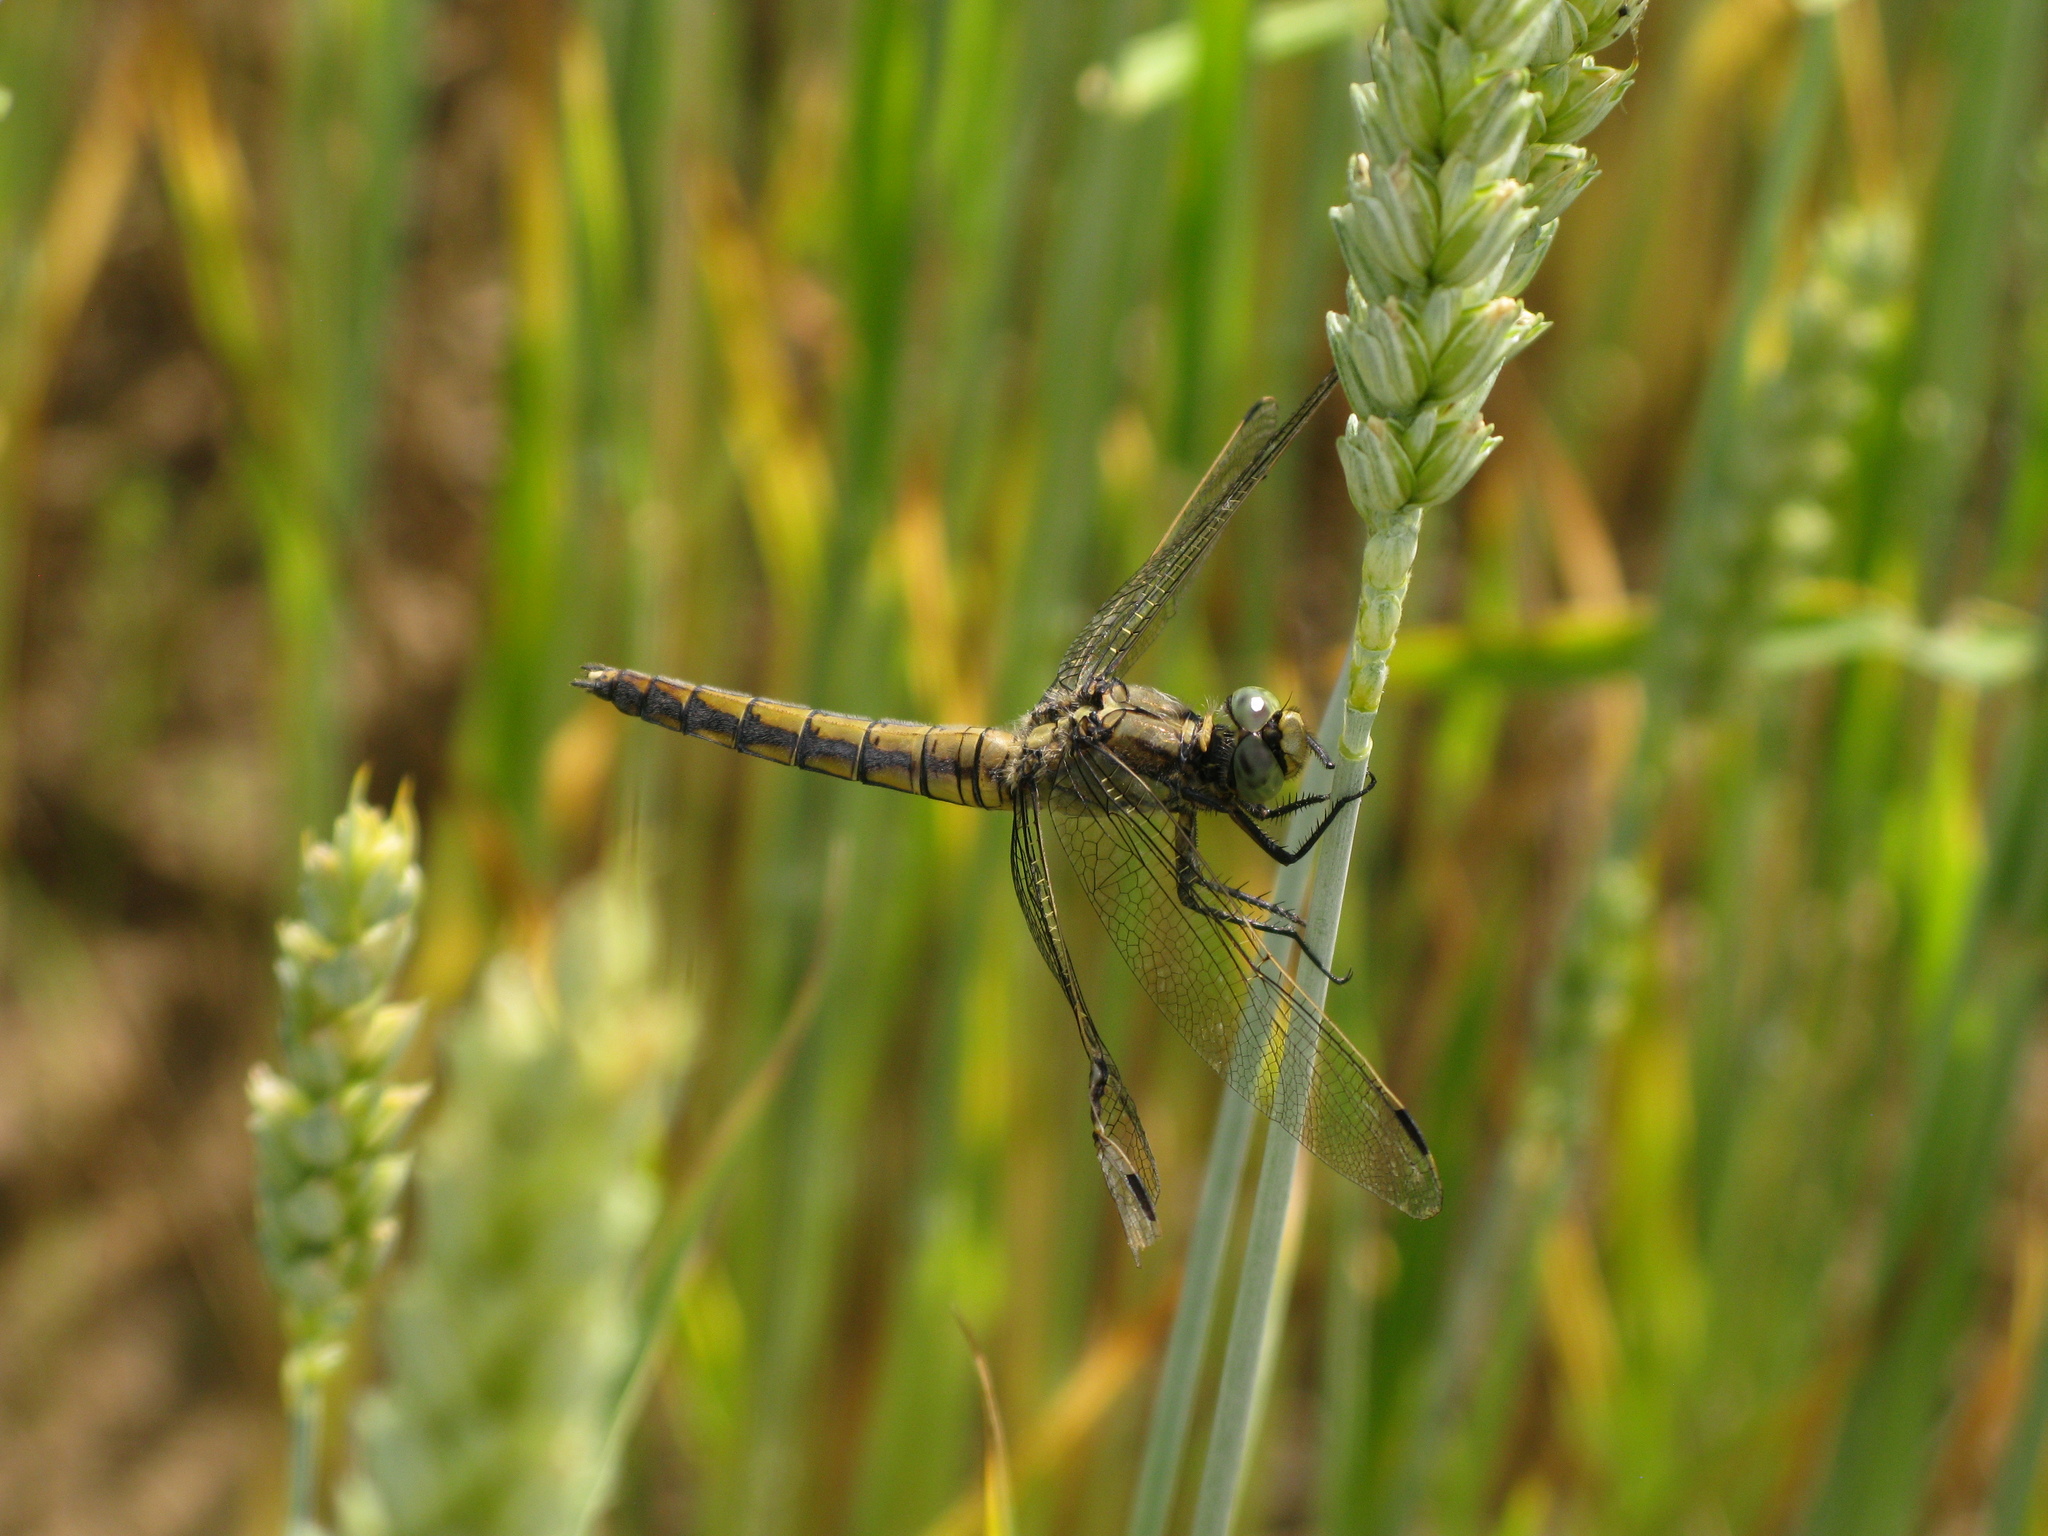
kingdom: Animalia
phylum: Arthropoda
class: Insecta
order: Odonata
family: Libellulidae
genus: Orthetrum
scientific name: Orthetrum cancellatum
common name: Black-tailed skimmer
